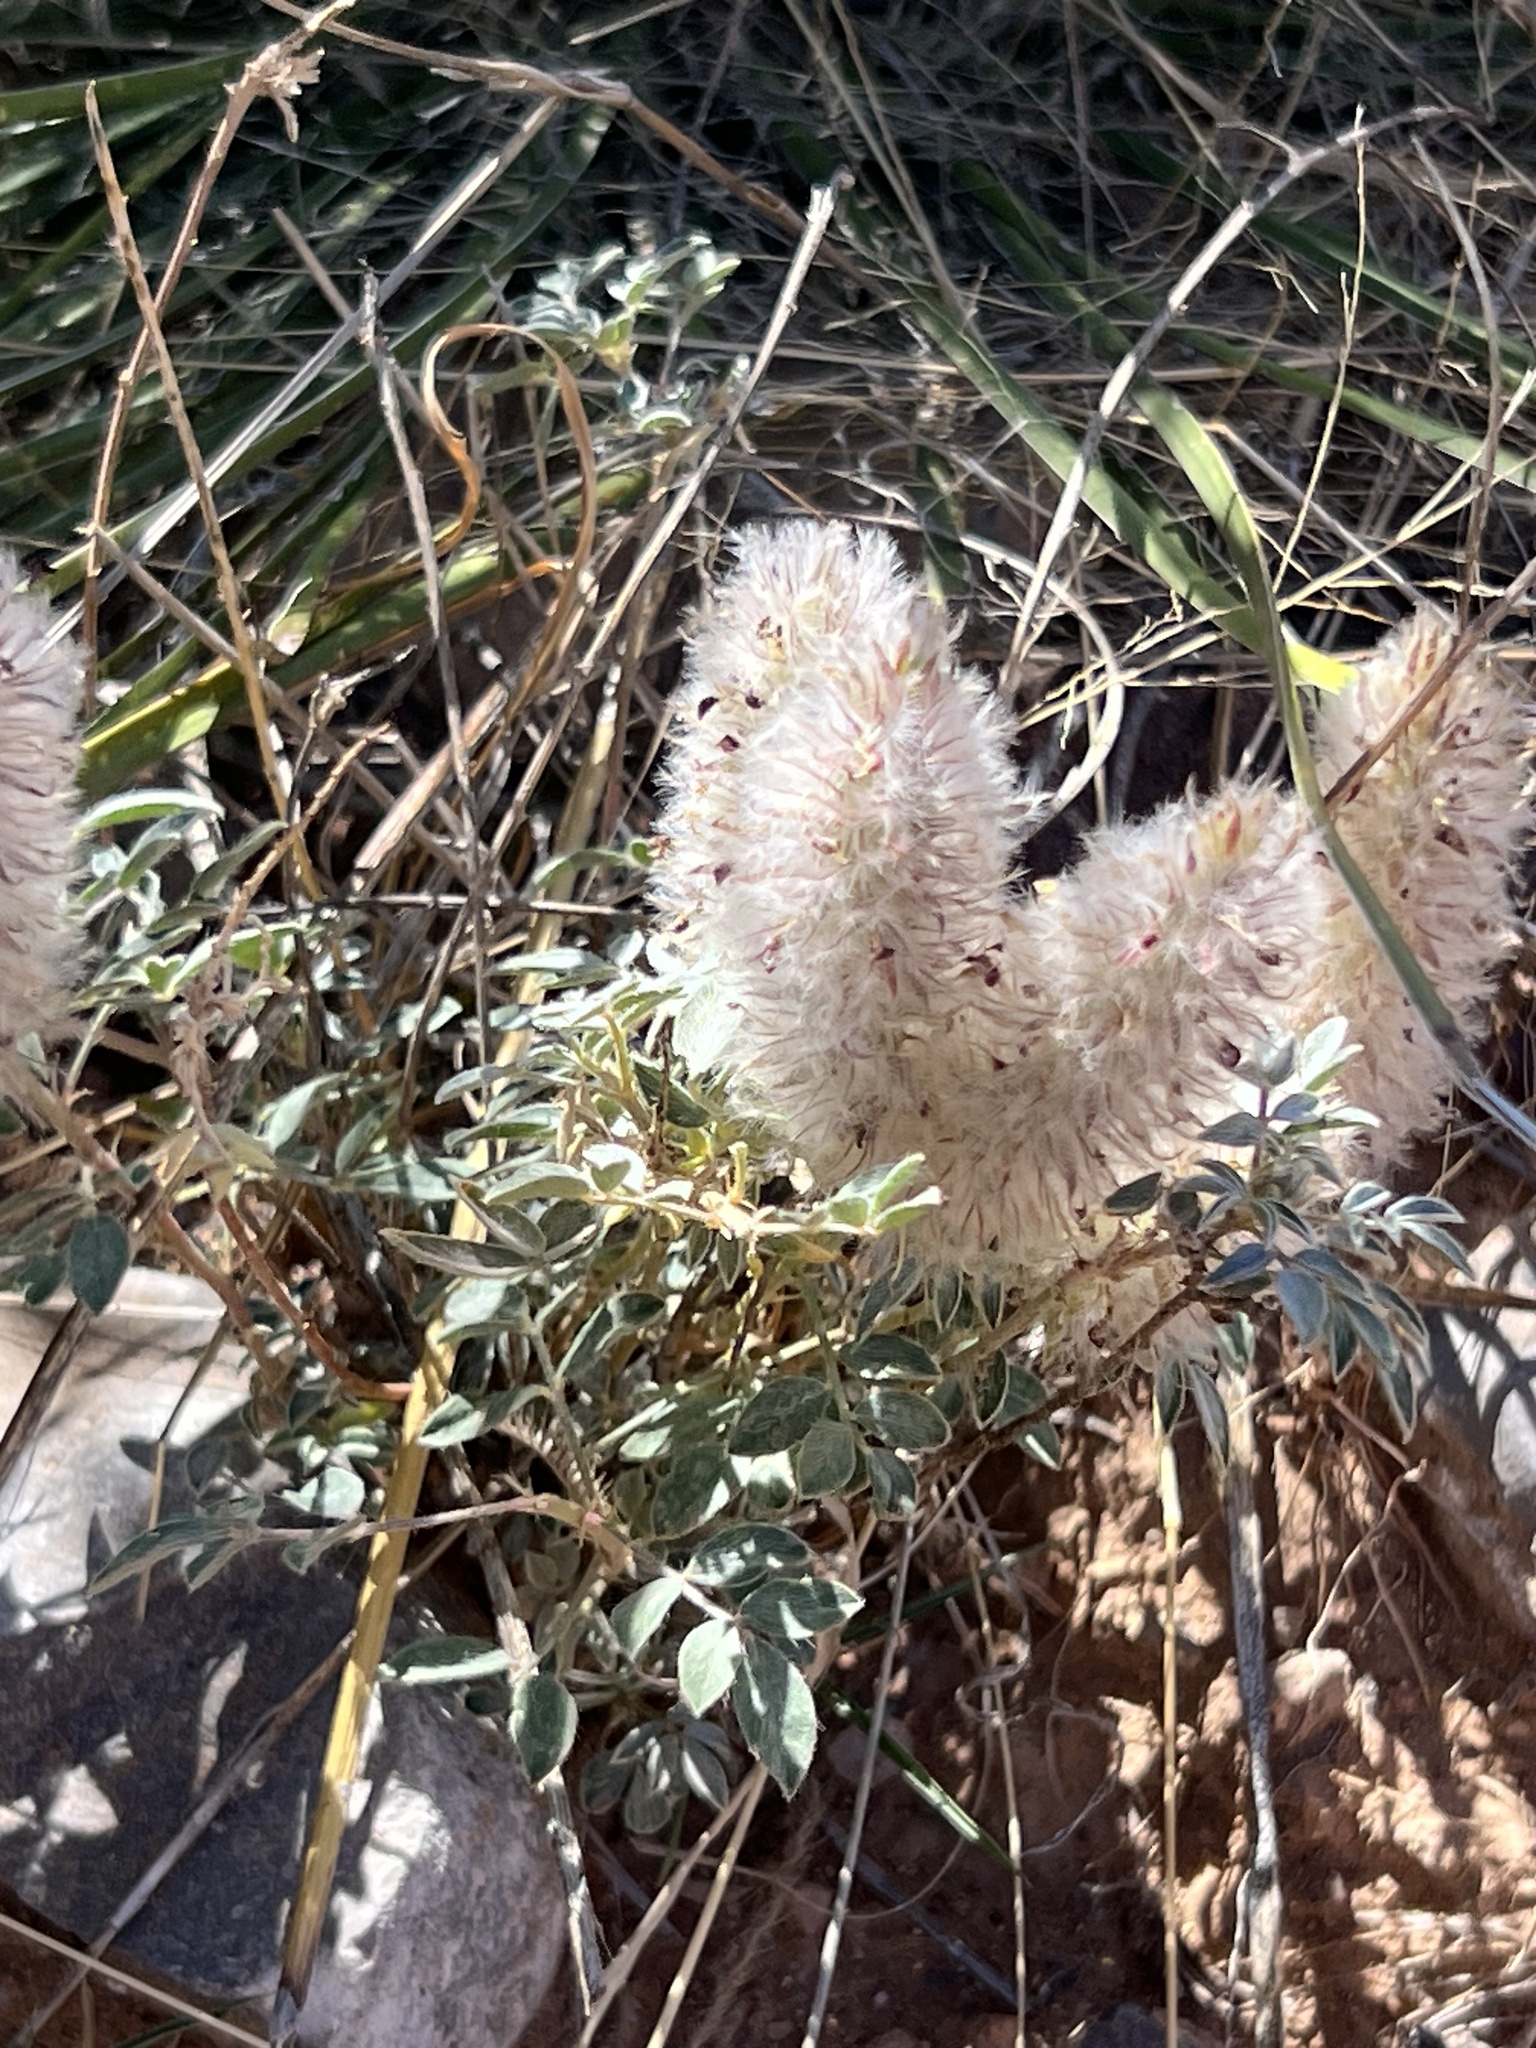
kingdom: Plantae
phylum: Tracheophyta
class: Magnoliopsida
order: Fabales
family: Fabaceae
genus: Dalea
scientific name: Dalea wrightii
